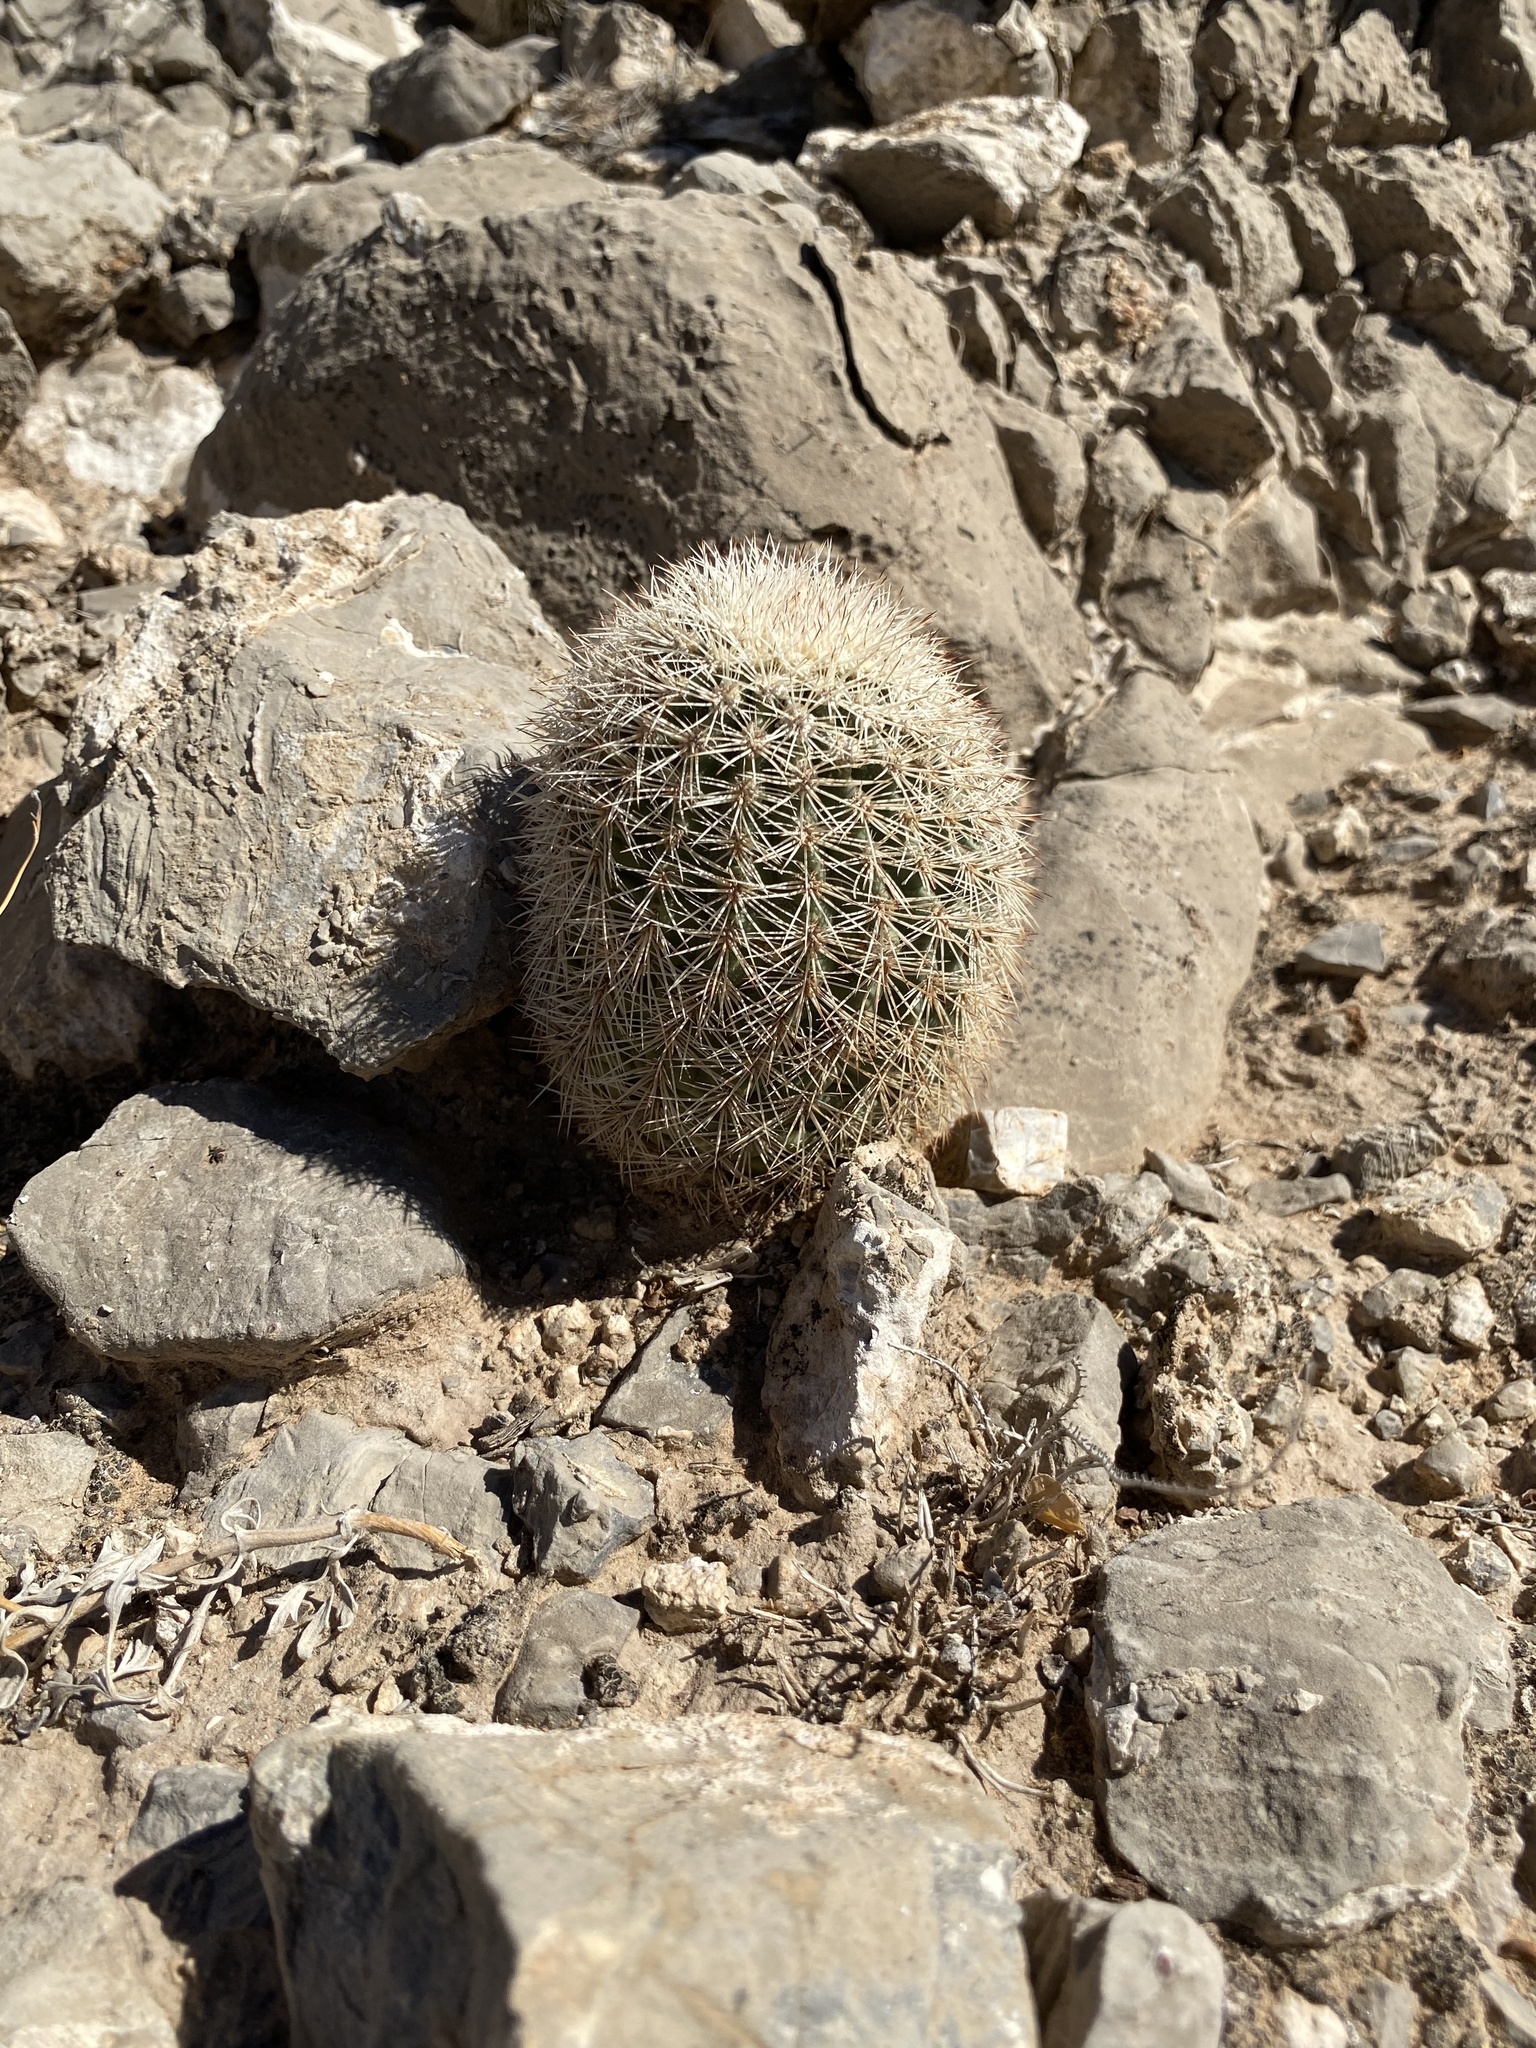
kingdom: Plantae
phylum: Tracheophyta
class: Magnoliopsida
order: Caryophyllales
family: Cactaceae
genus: Echinocereus
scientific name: Echinocereus dasyacanthus
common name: Spiny hedgehog cactus
